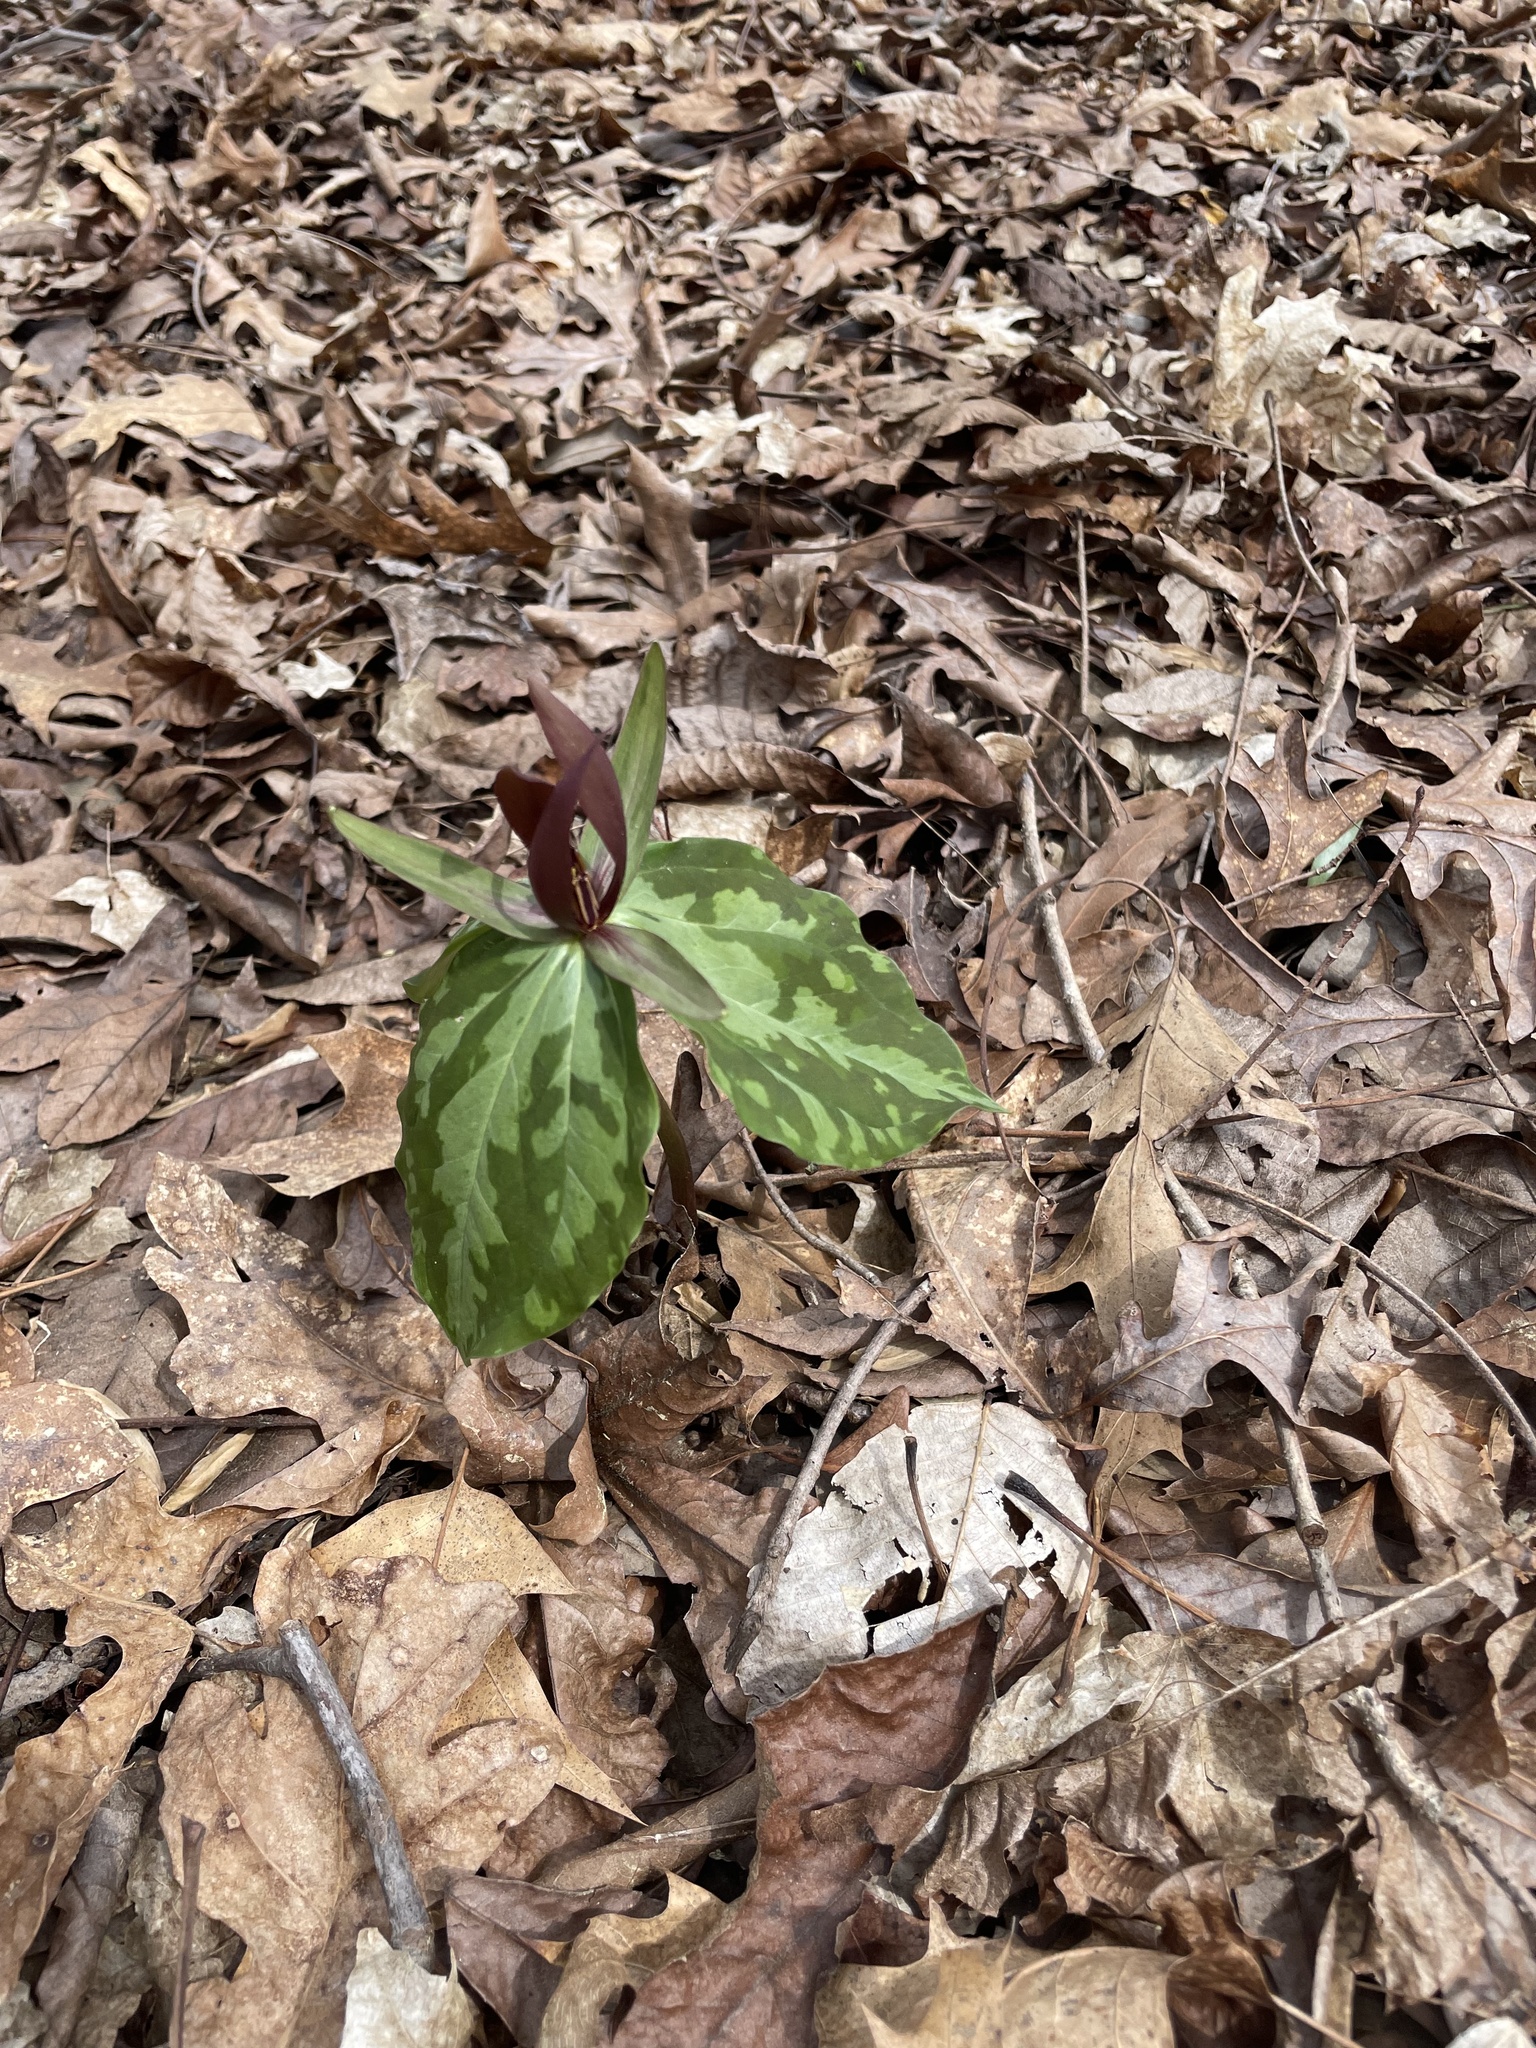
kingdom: Plantae
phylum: Tracheophyta
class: Liliopsida
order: Liliales
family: Melanthiaceae
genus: Trillium
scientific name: Trillium cuneatum
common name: Cuneate trillium
